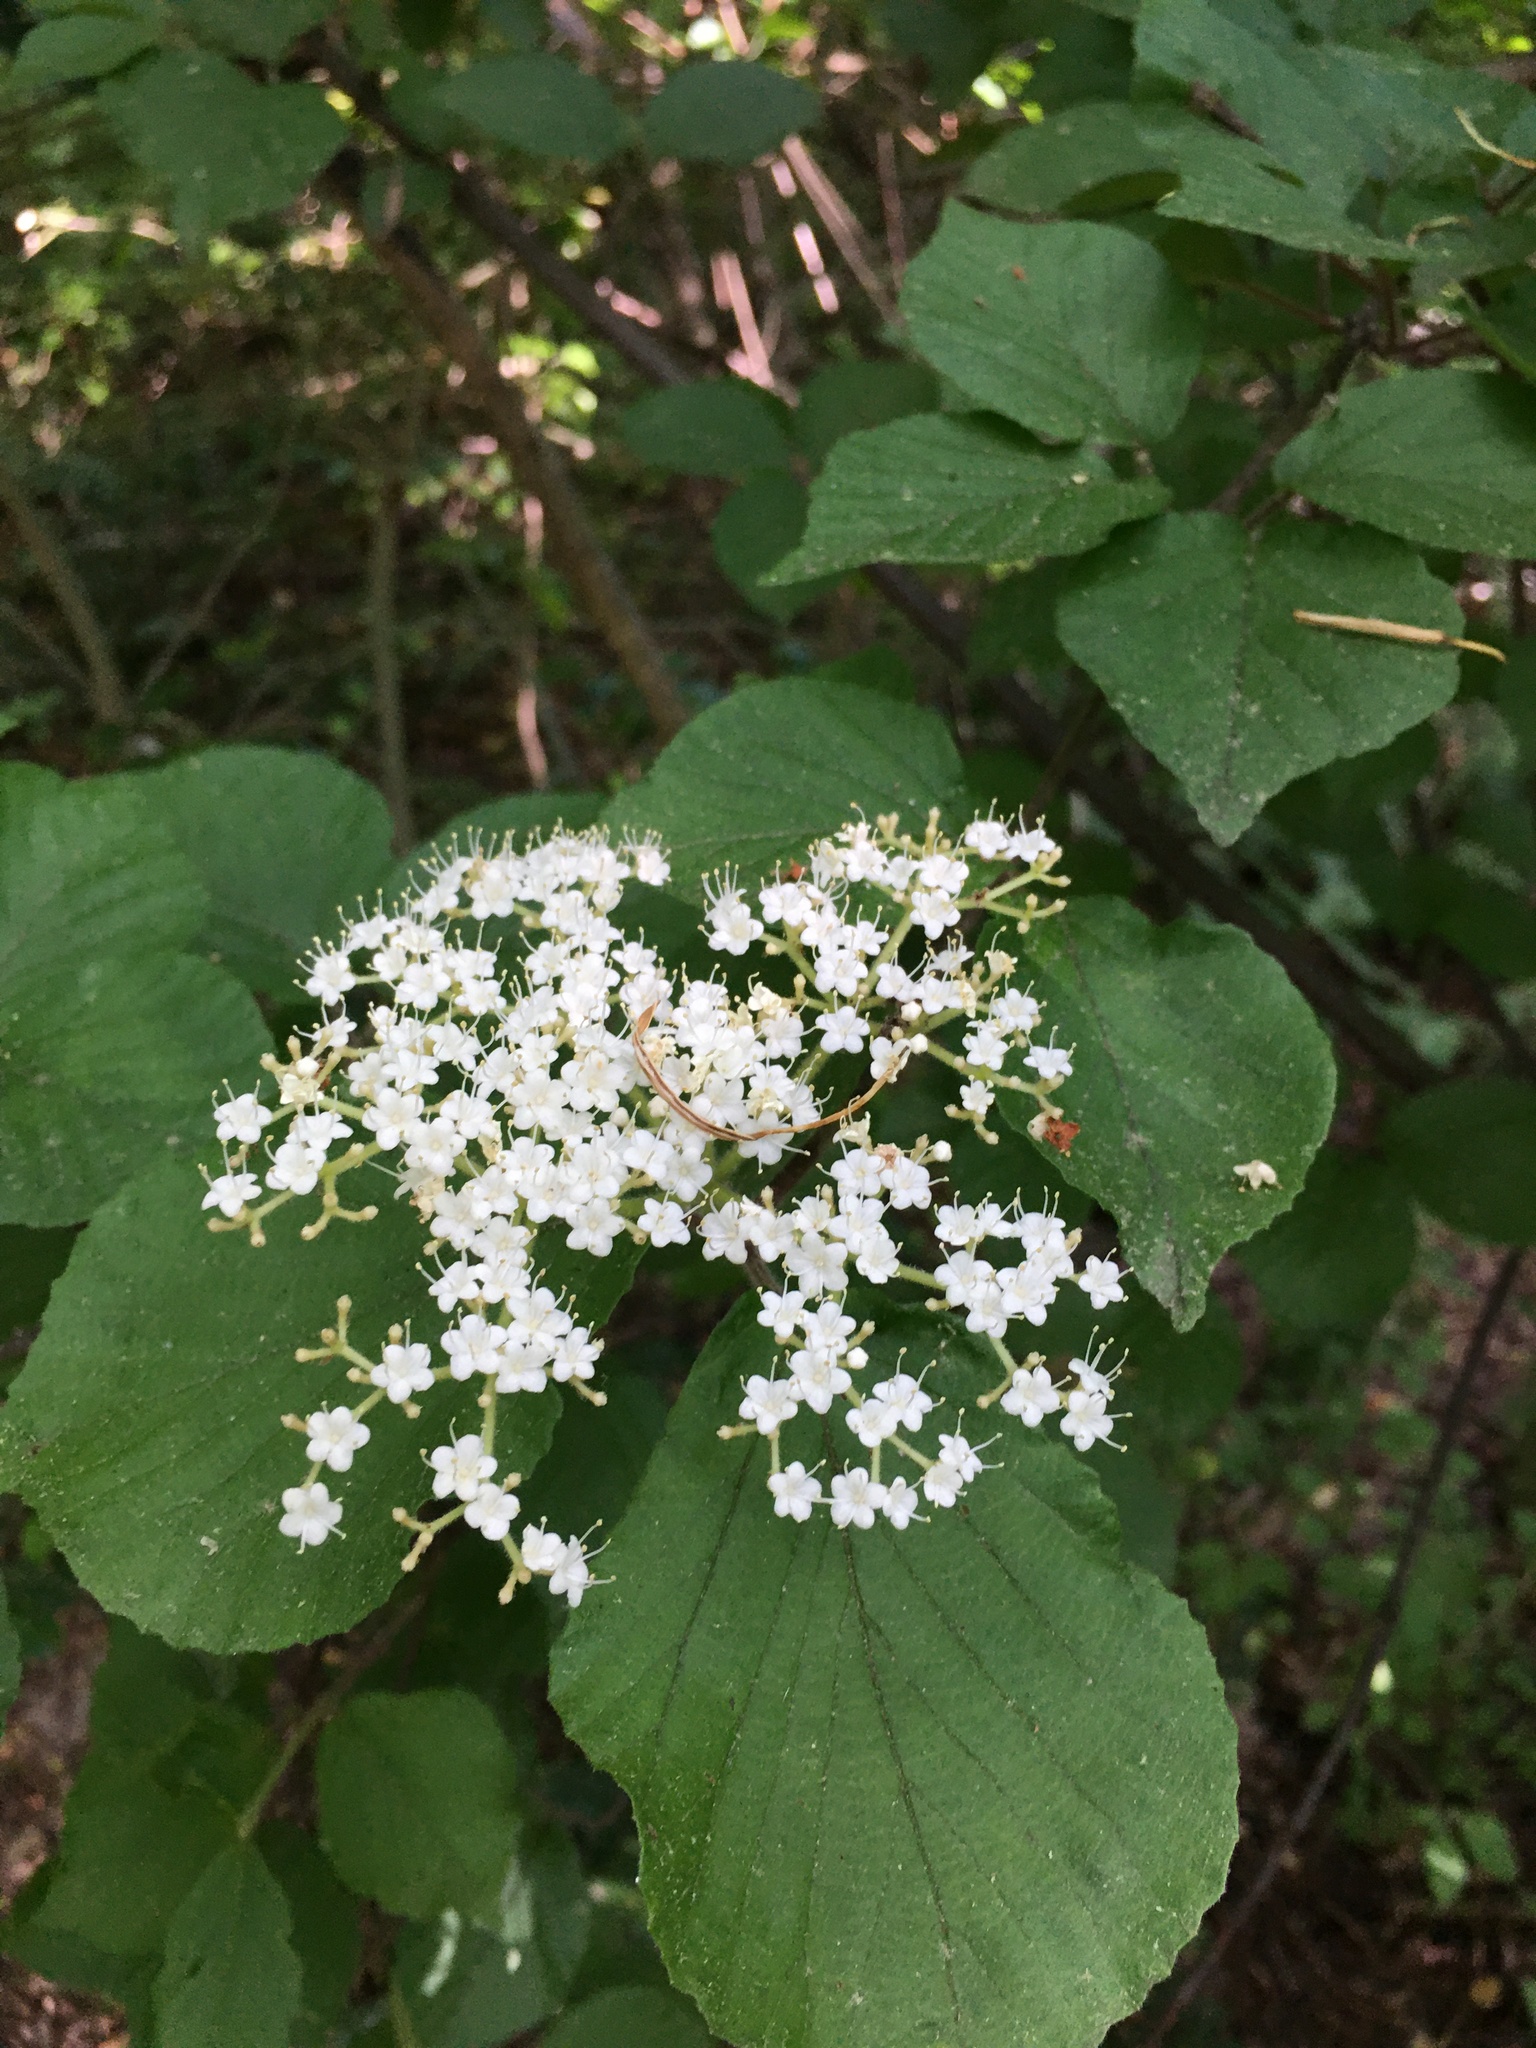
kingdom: Plantae
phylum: Tracheophyta
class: Magnoliopsida
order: Dipsacales
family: Viburnaceae
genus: Viburnum
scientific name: Viburnum dilatatum
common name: Linden arrowwood
